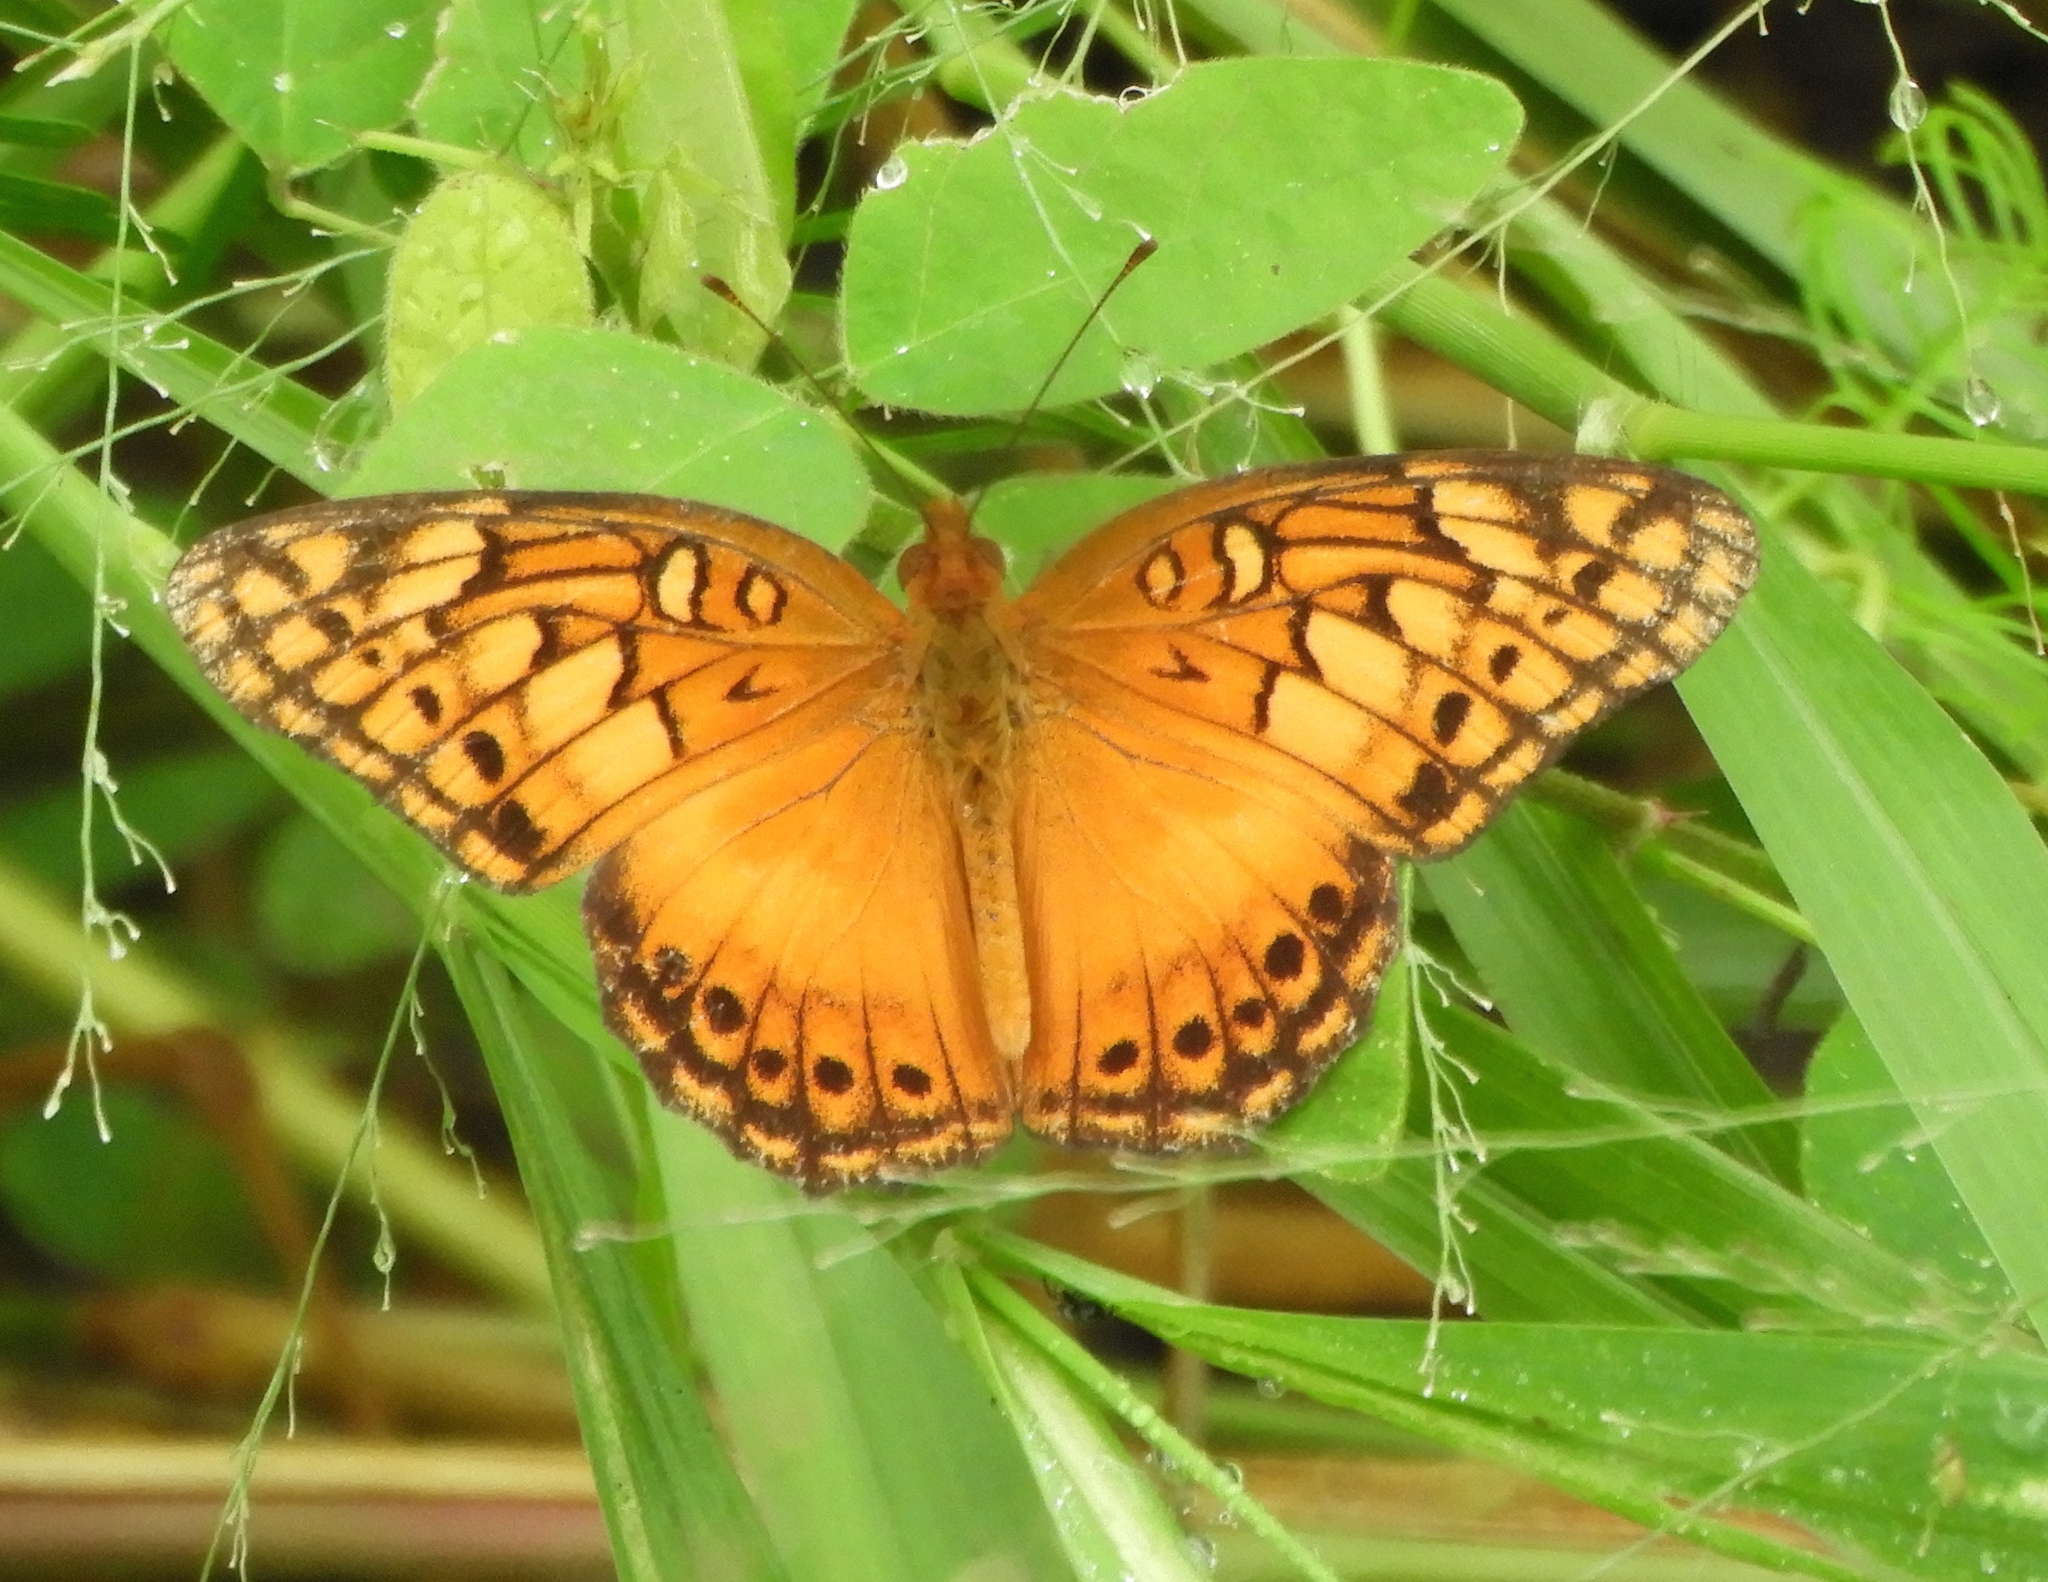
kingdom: Animalia
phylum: Arthropoda
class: Insecta
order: Lepidoptera
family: Nymphalidae
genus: Euptoieta
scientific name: Euptoieta hegesia
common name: Mexican fritillary
